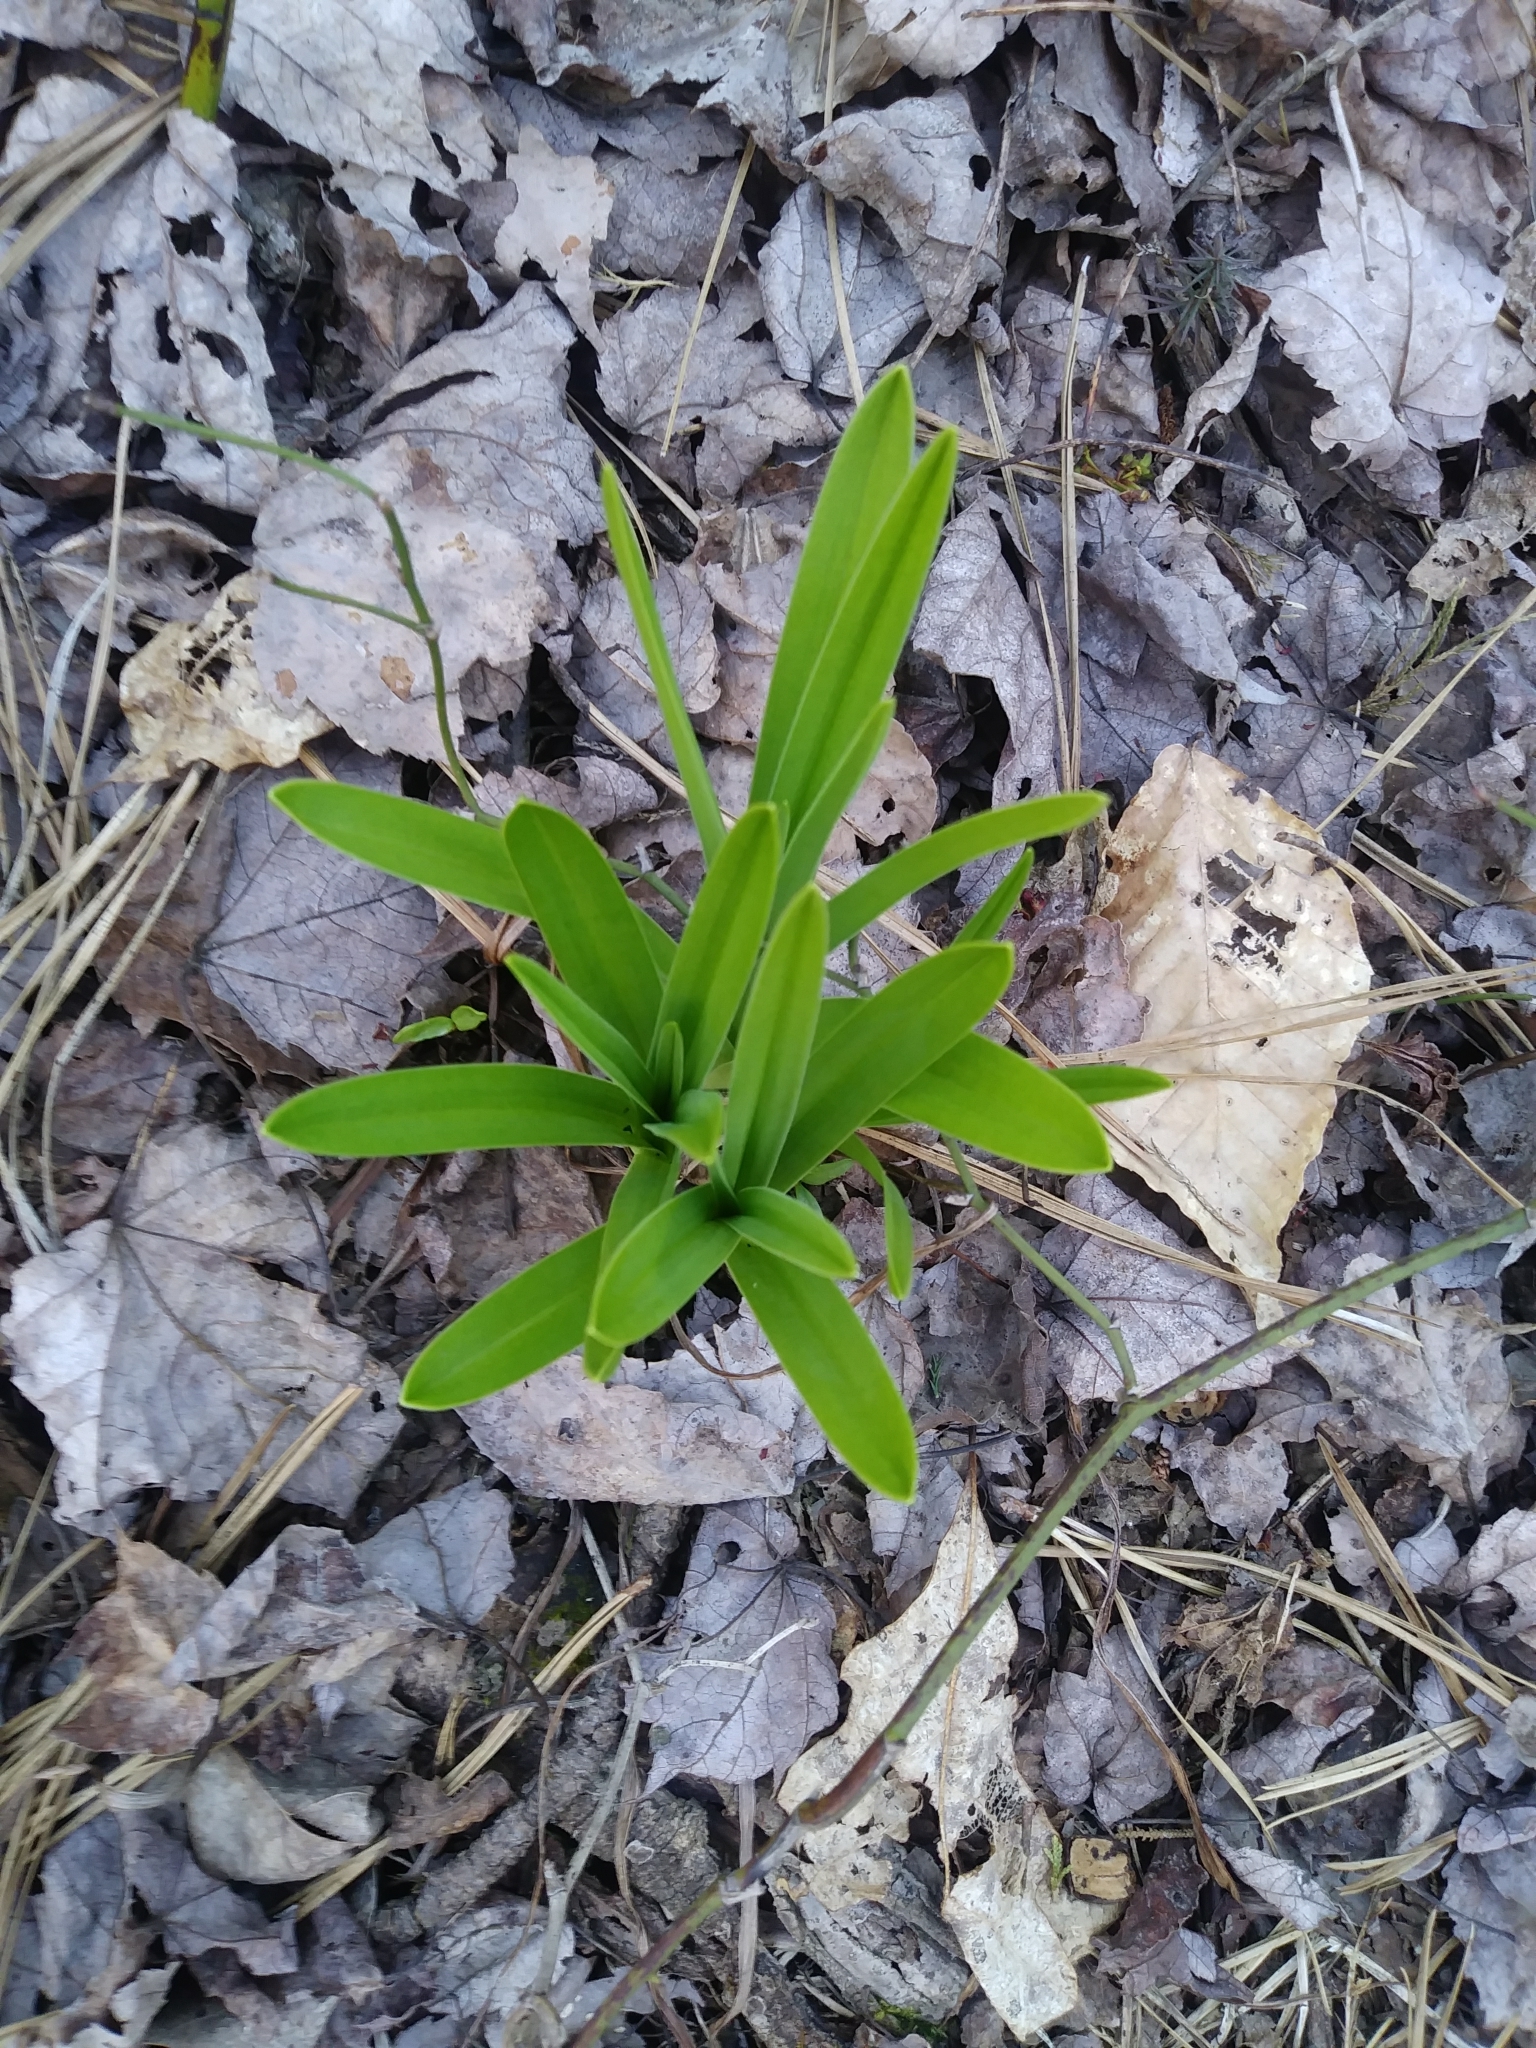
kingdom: Plantae
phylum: Tracheophyta
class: Liliopsida
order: Liliales
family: Melanthiaceae
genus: Amianthium
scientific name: Amianthium muscitoxicum
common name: Fly-poison
